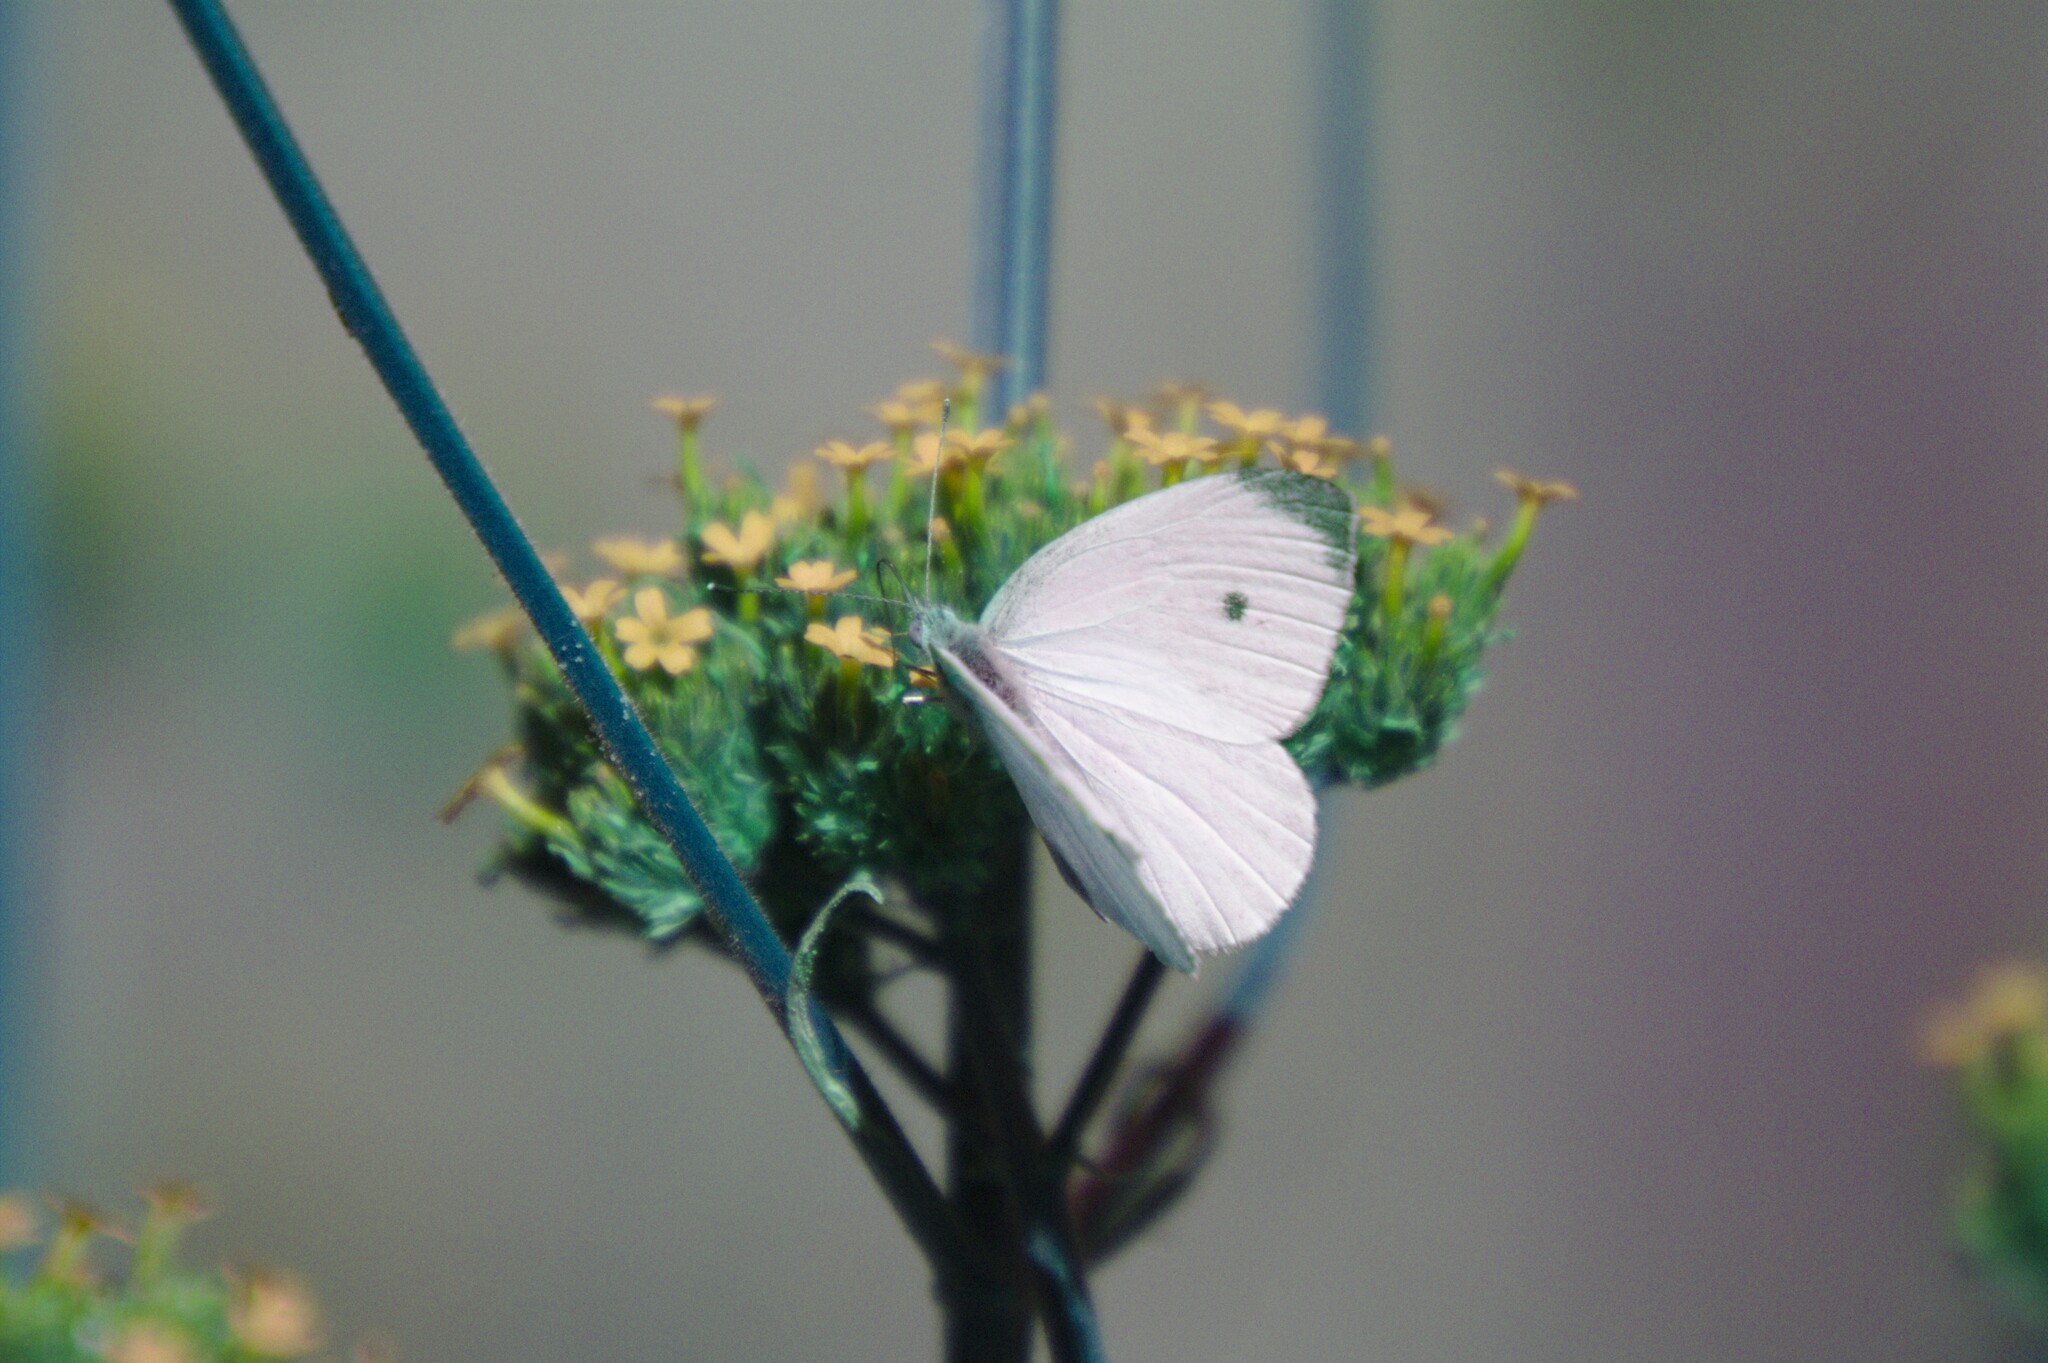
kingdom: Animalia
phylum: Arthropoda
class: Insecta
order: Lepidoptera
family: Pieridae
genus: Pieris
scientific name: Pieris rapae
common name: Small white
